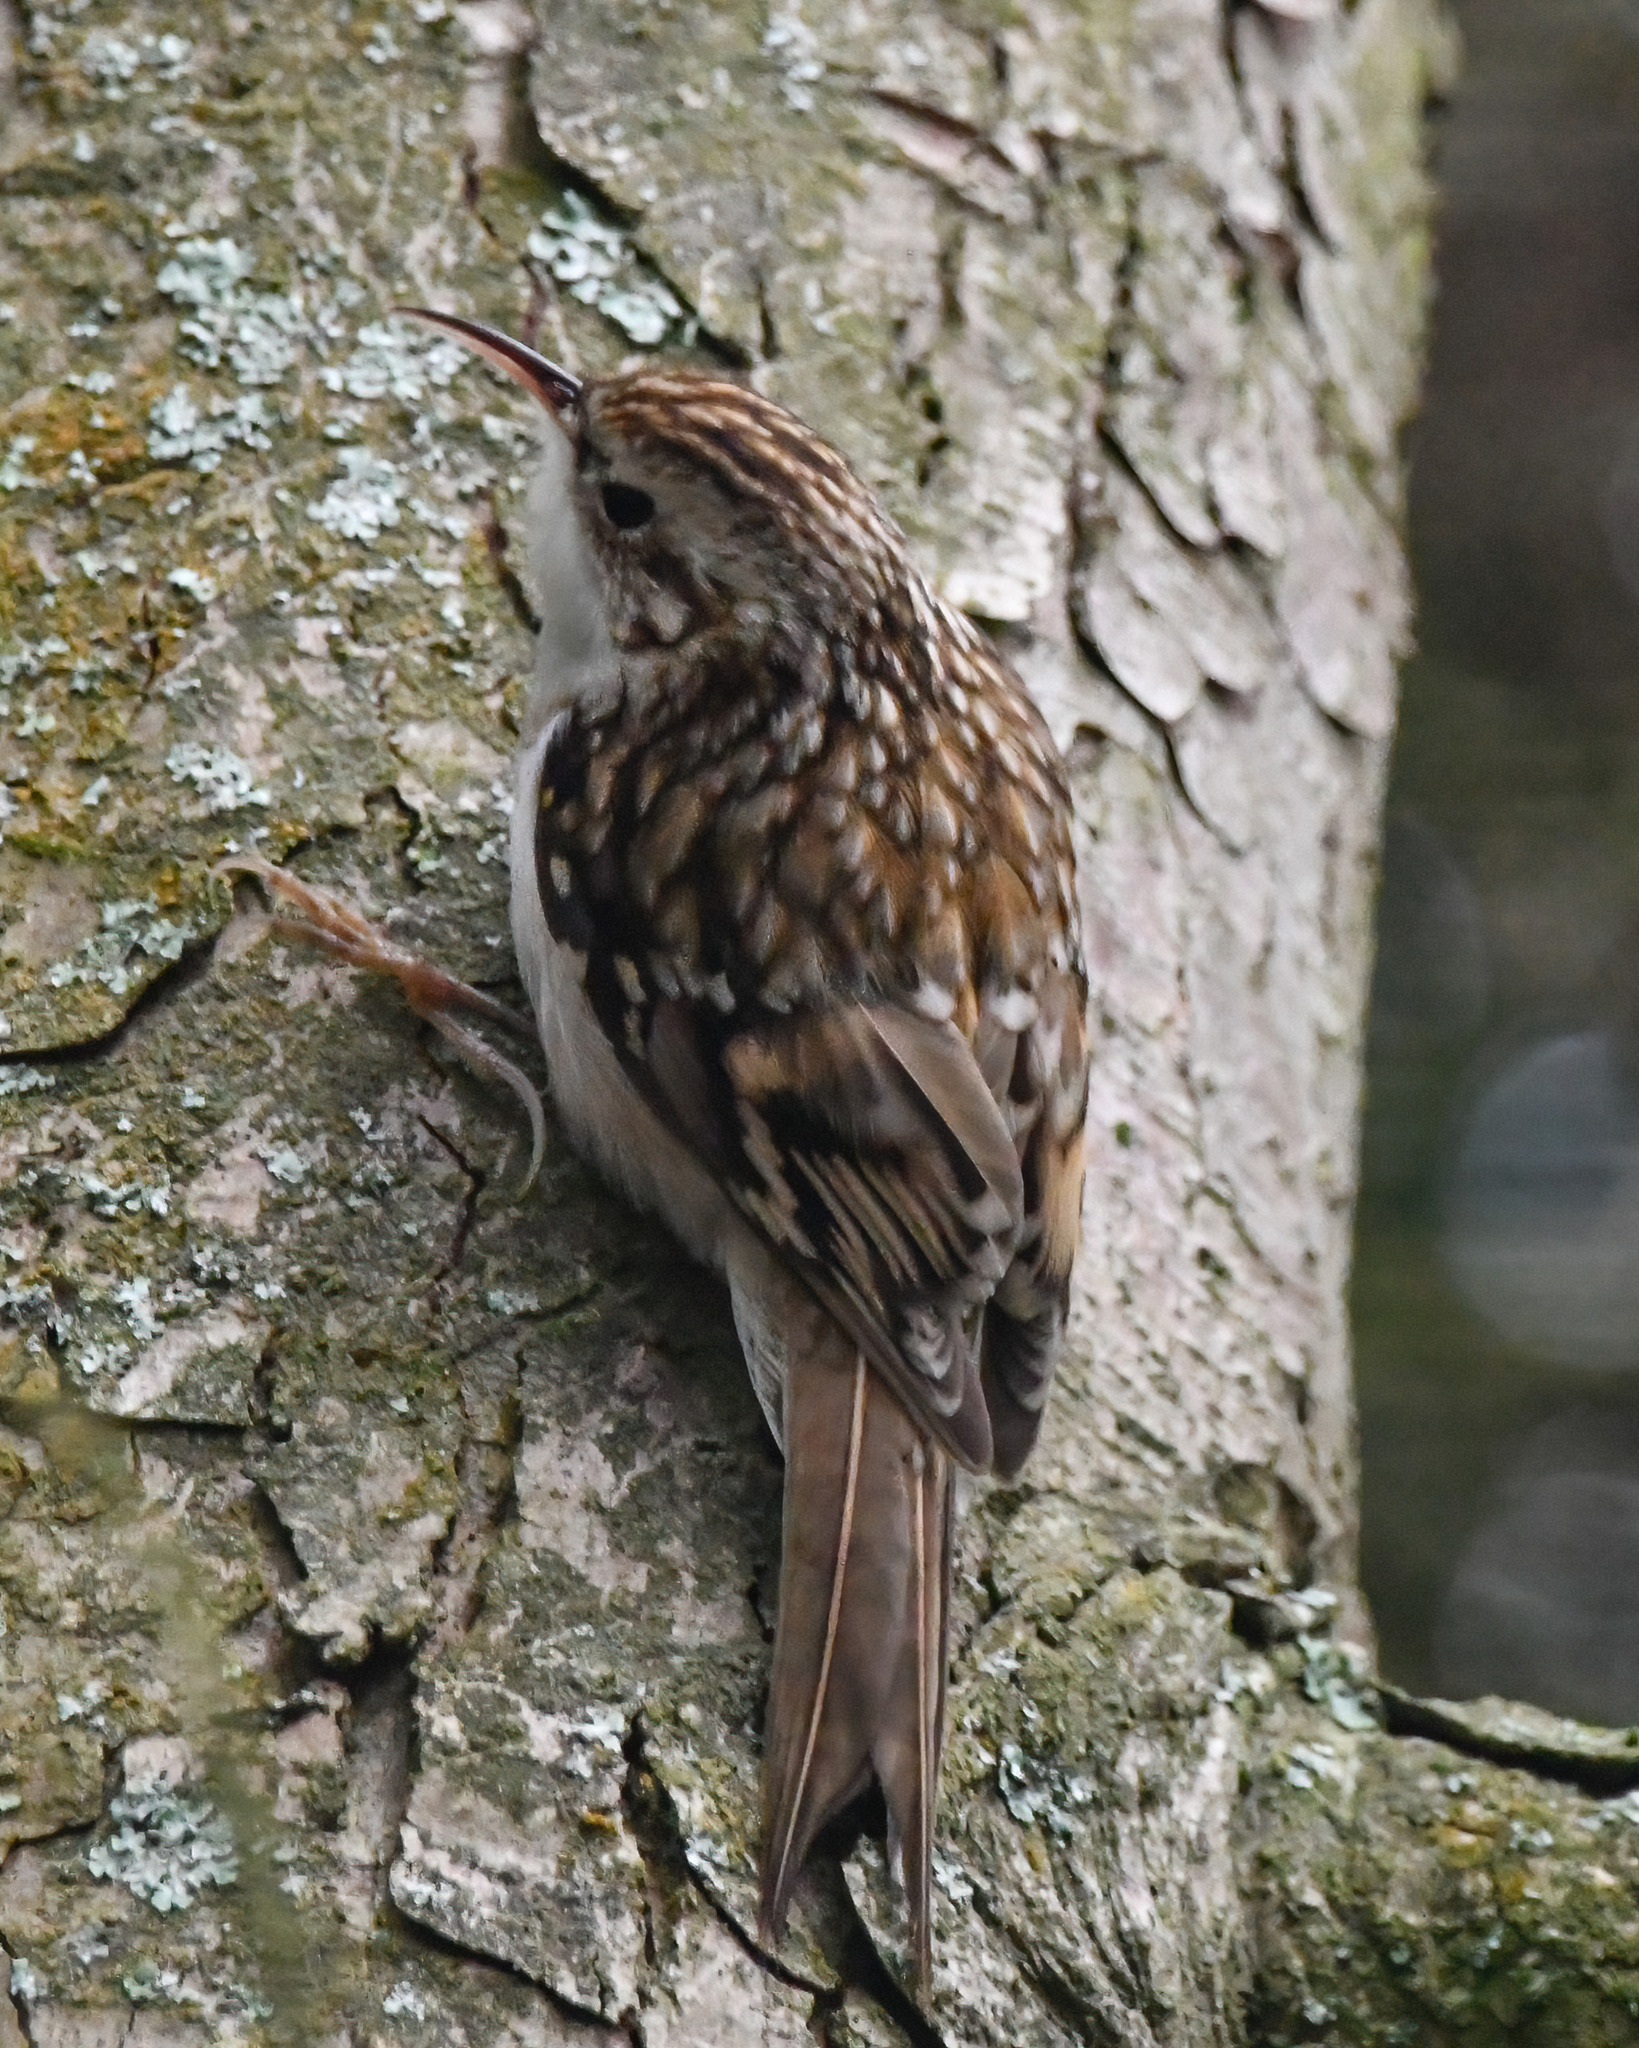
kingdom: Animalia
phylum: Chordata
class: Aves
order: Passeriformes
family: Certhiidae
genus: Certhia
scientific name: Certhia familiaris
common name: Eurasian treecreeper
